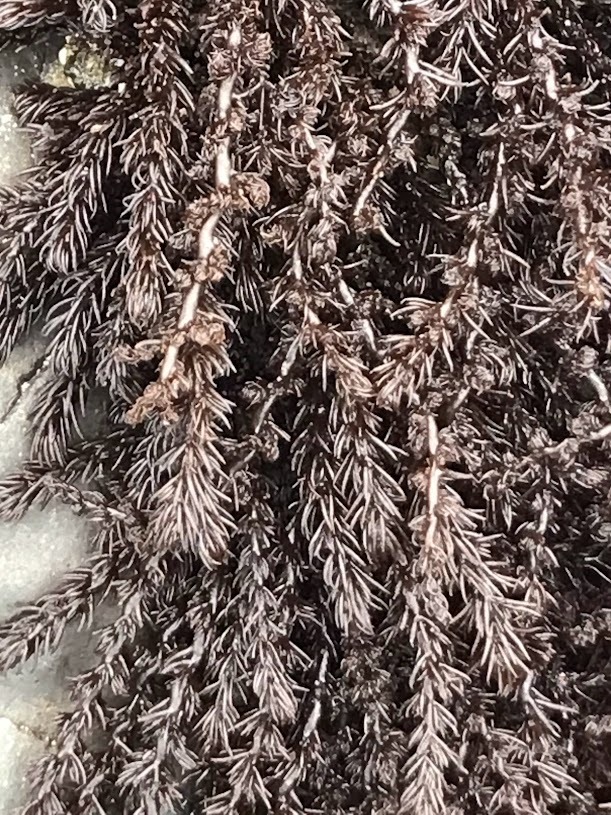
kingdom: Plantae
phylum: Rhodophyta
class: Florideophyceae
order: Ceramiales
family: Rhodomelaceae
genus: Neorhodomela
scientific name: Neorhodomela larix
